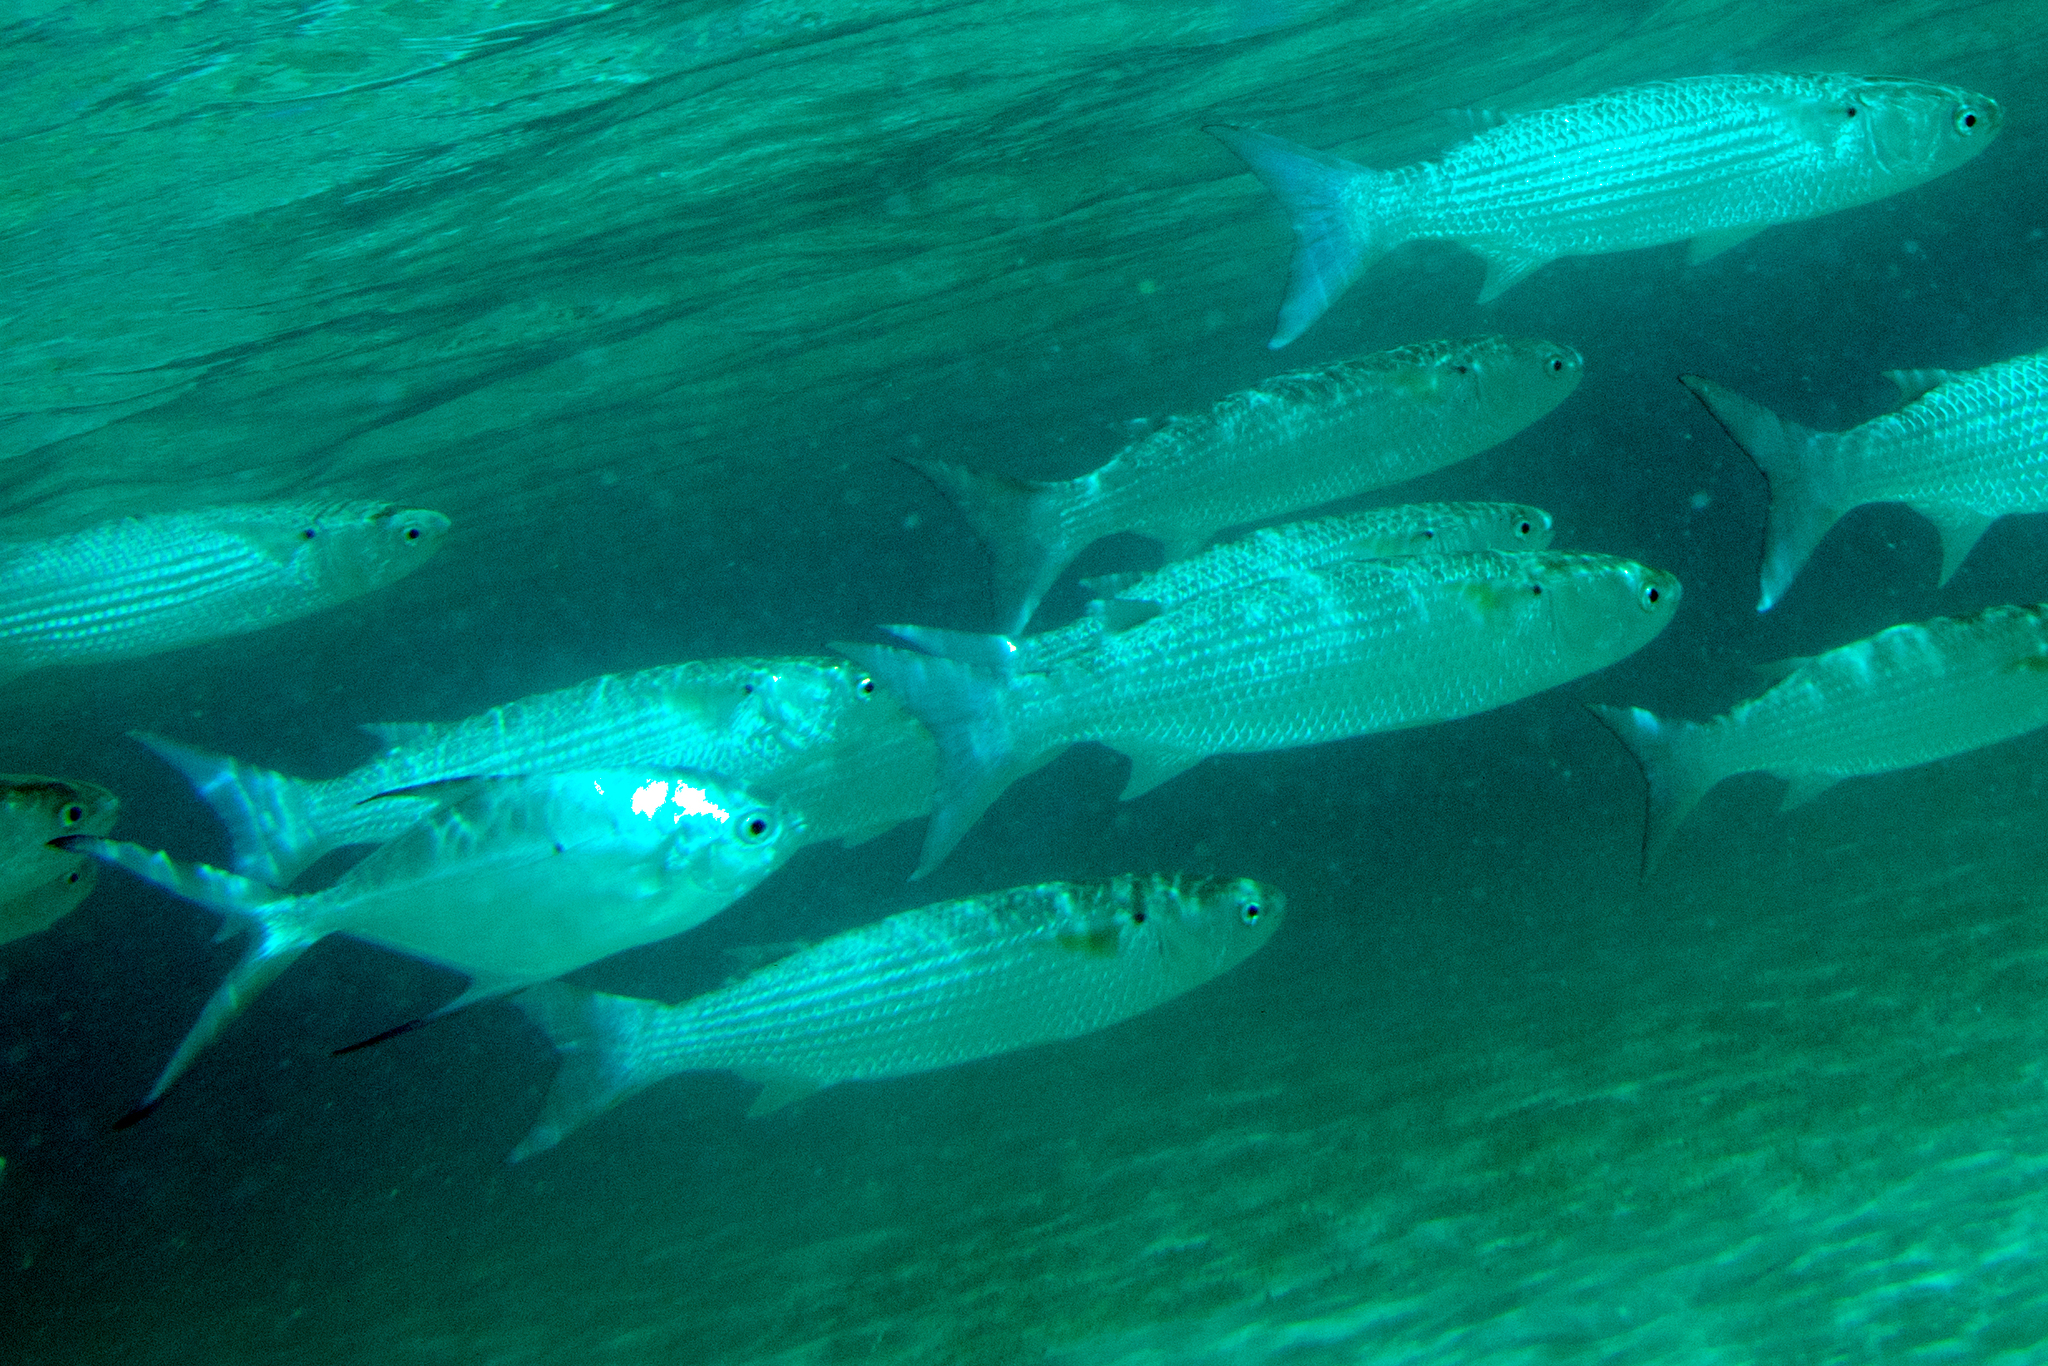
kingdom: Animalia
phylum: Chordata
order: Mugiliformes
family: Mugilidae
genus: Crenimugil
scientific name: Crenimugil crenilabis
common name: Fringelip mullet
